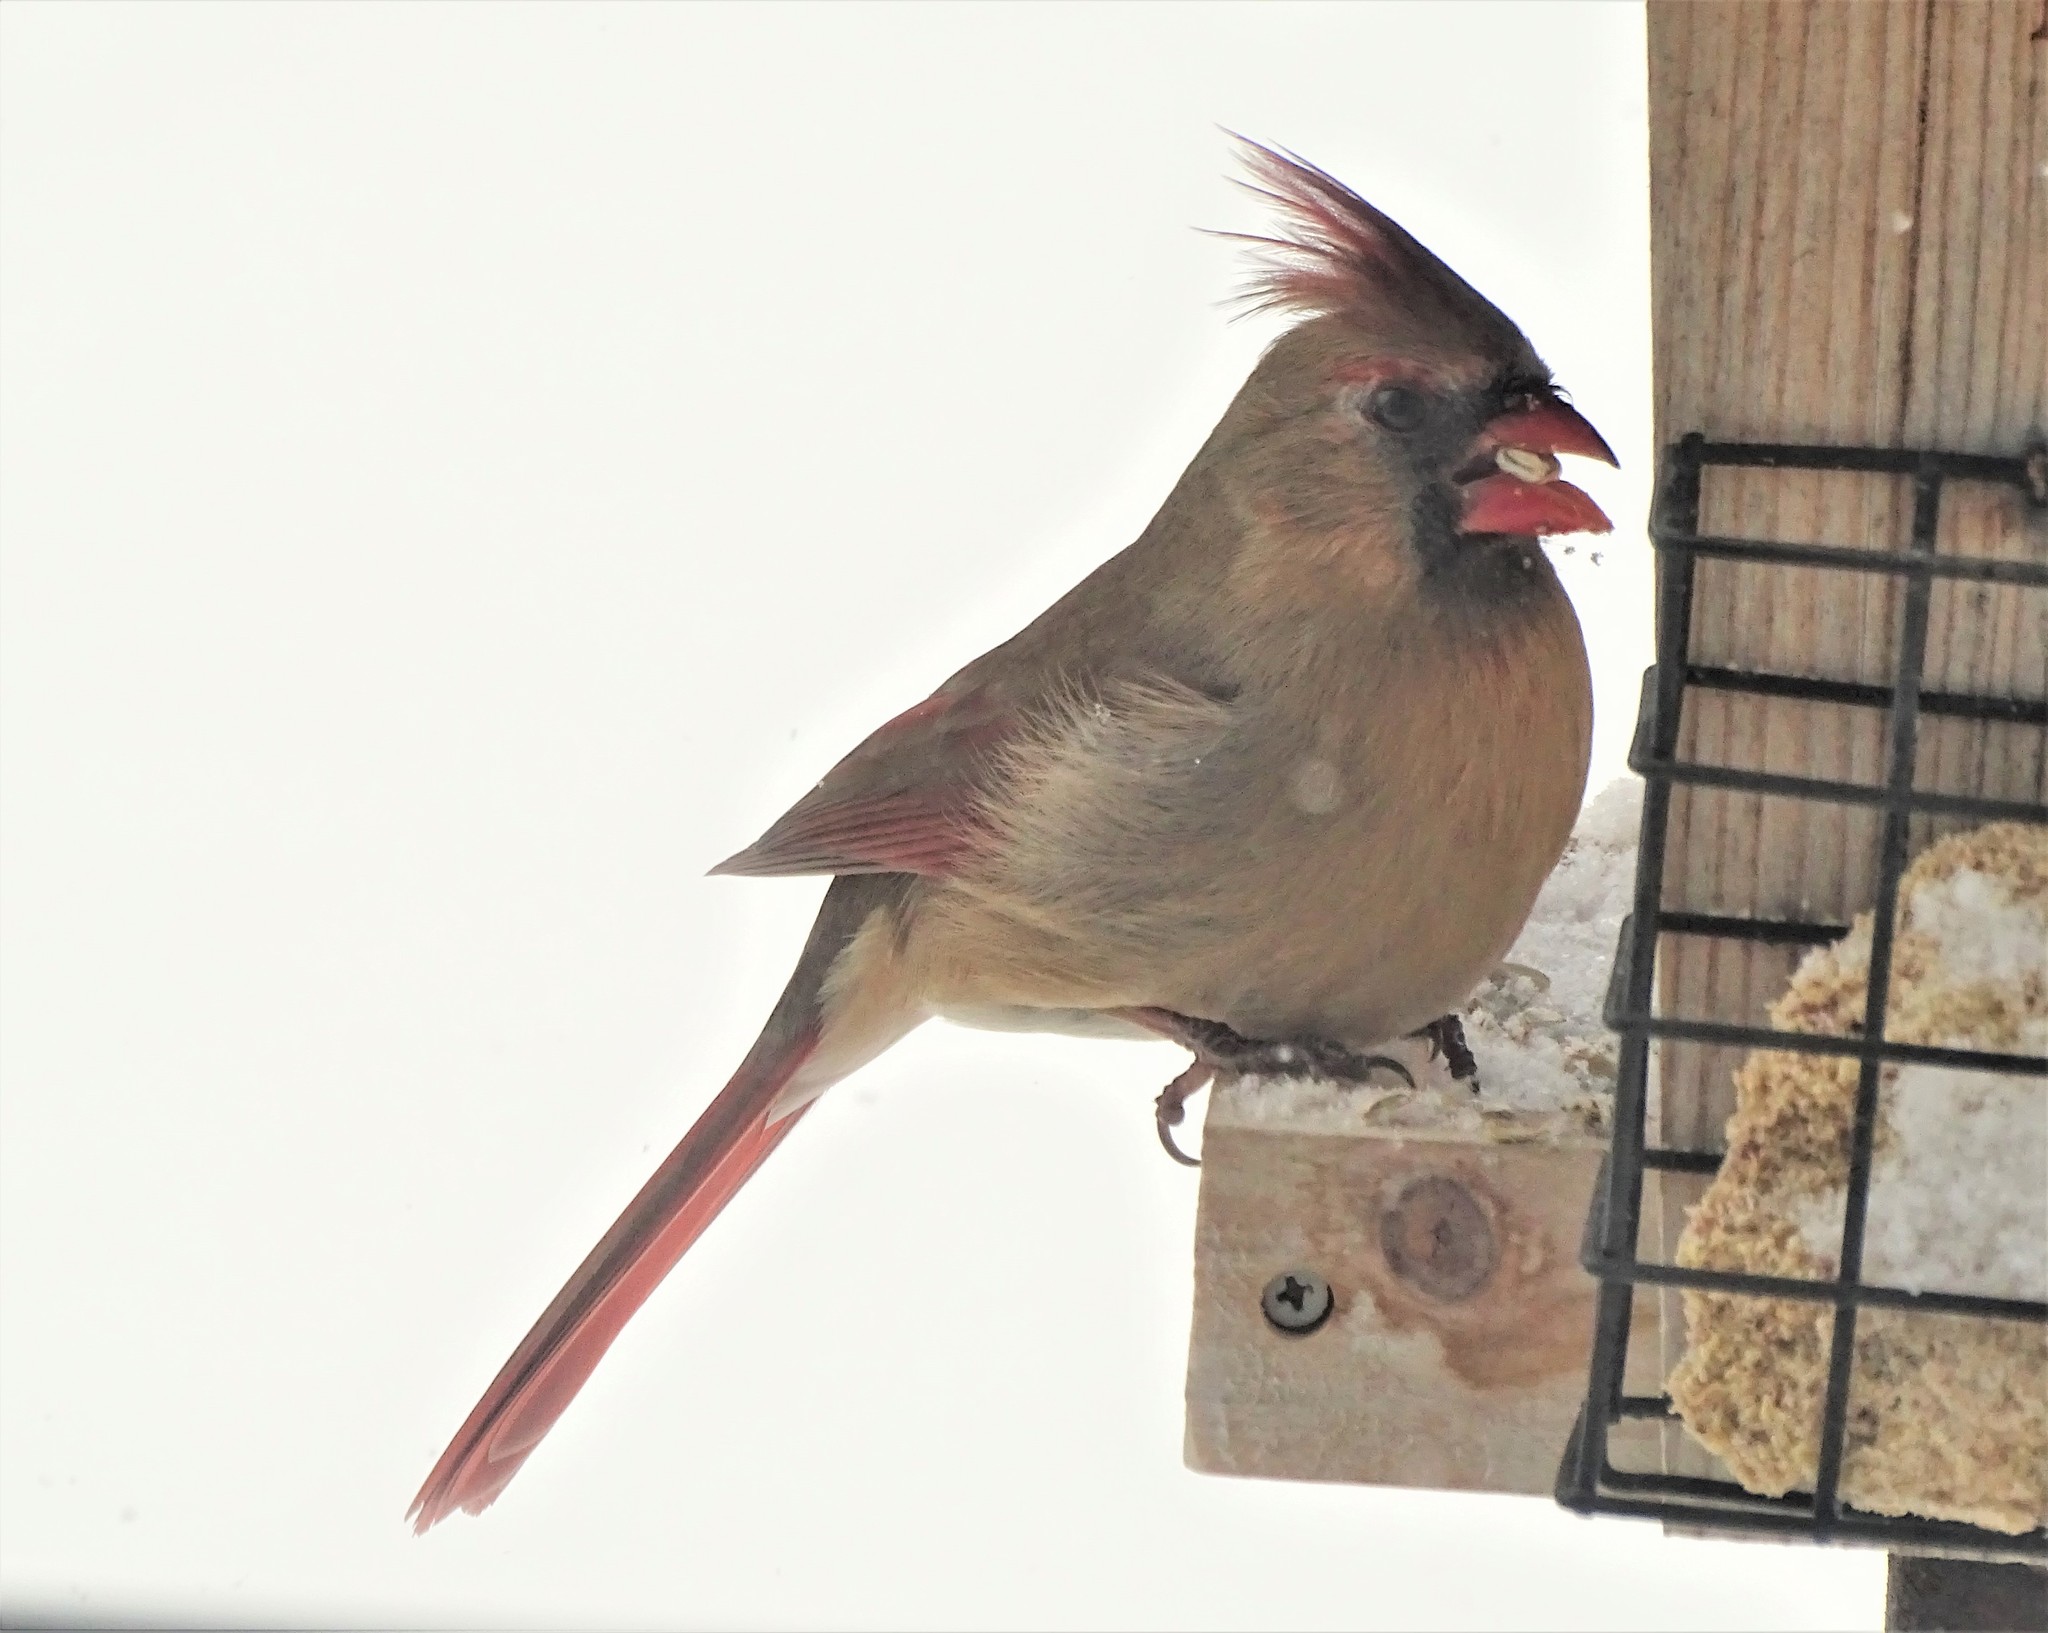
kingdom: Animalia
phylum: Chordata
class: Aves
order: Passeriformes
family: Cardinalidae
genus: Cardinalis
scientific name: Cardinalis cardinalis
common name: Northern cardinal
